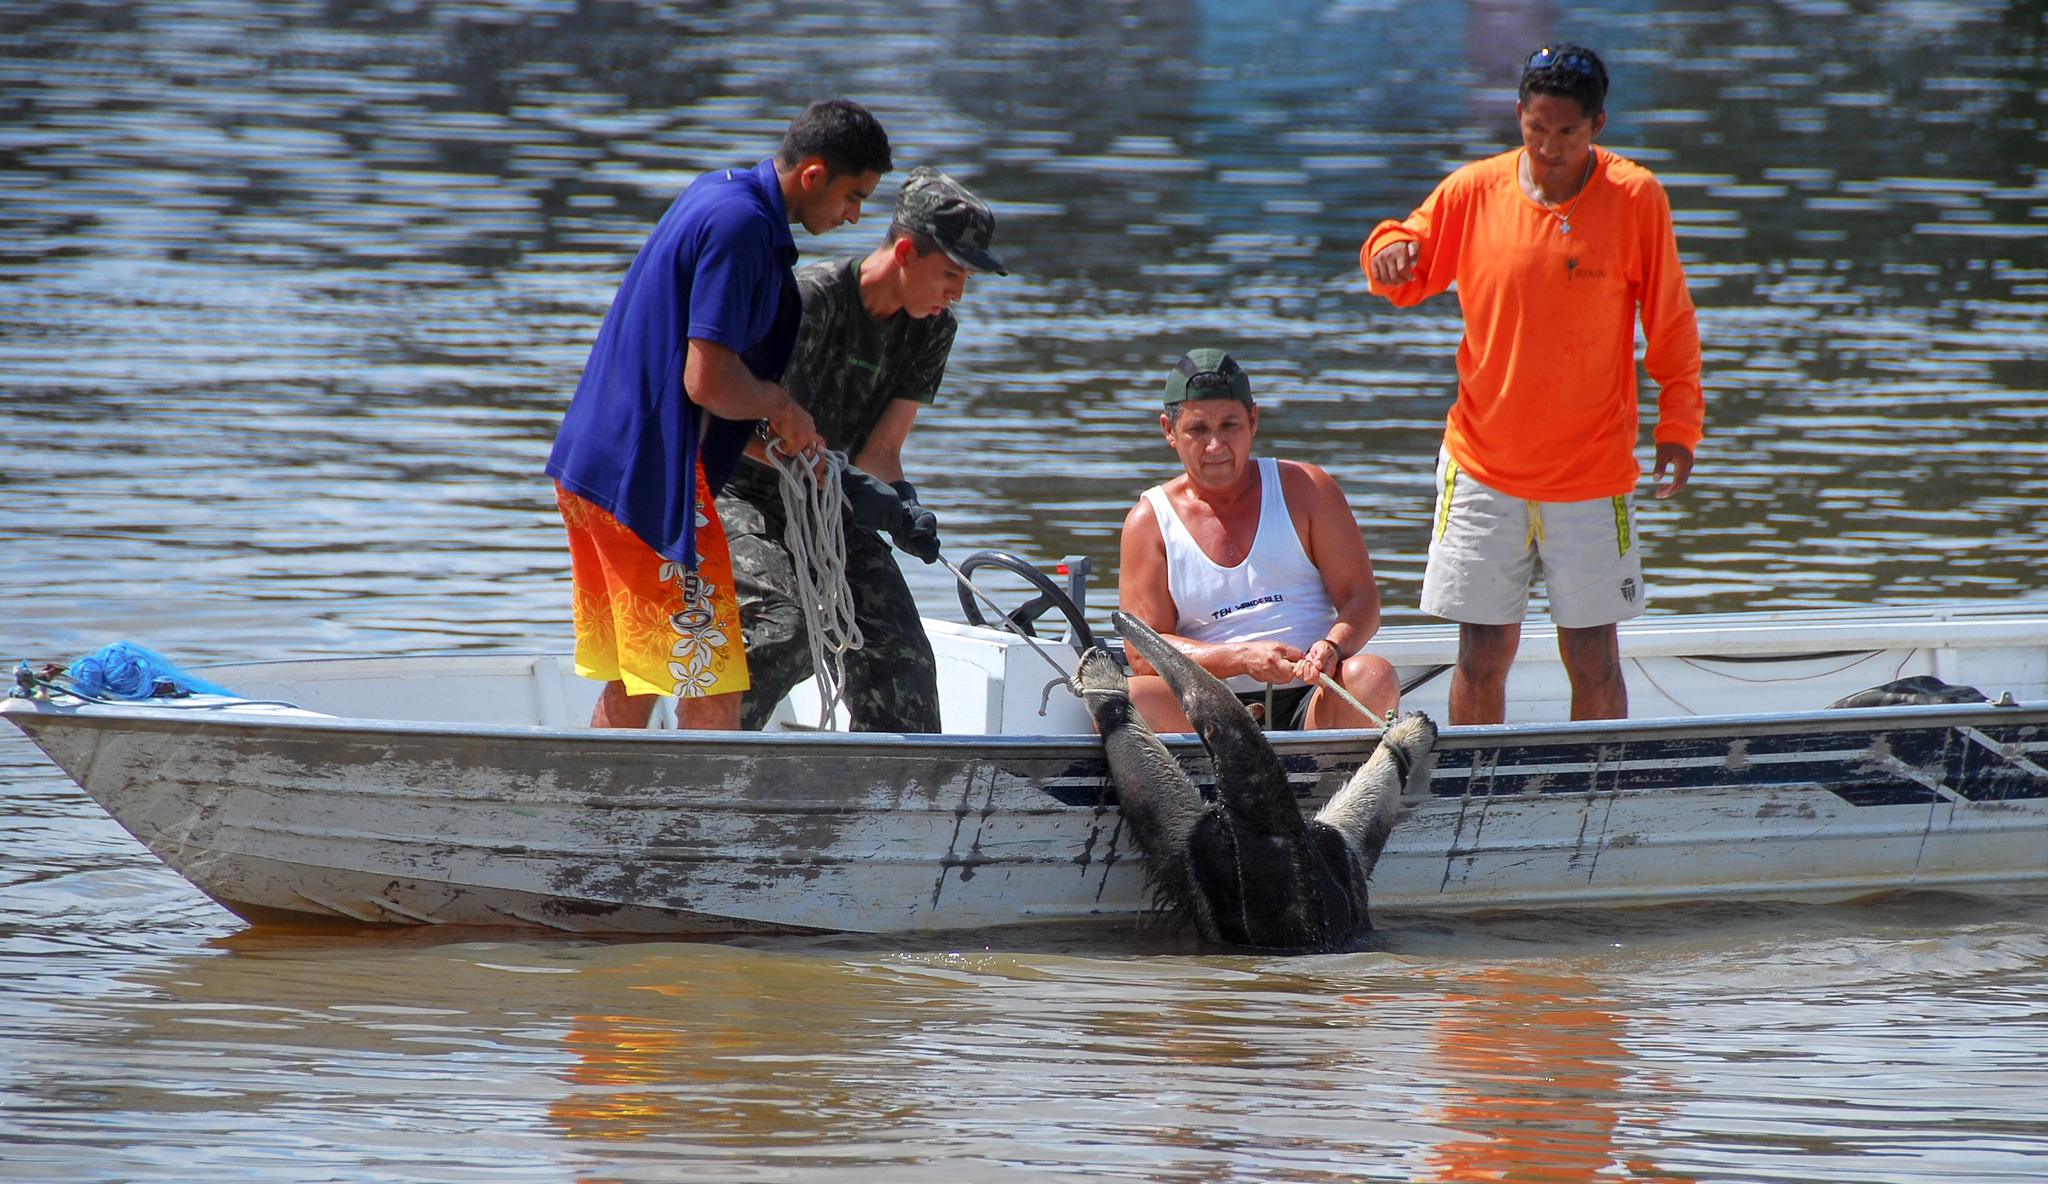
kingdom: Animalia
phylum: Chordata
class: Mammalia
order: Pilosa
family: Myrmecophagidae
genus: Myrmecophaga
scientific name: Myrmecophaga tridactyla
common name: Giant anteater
